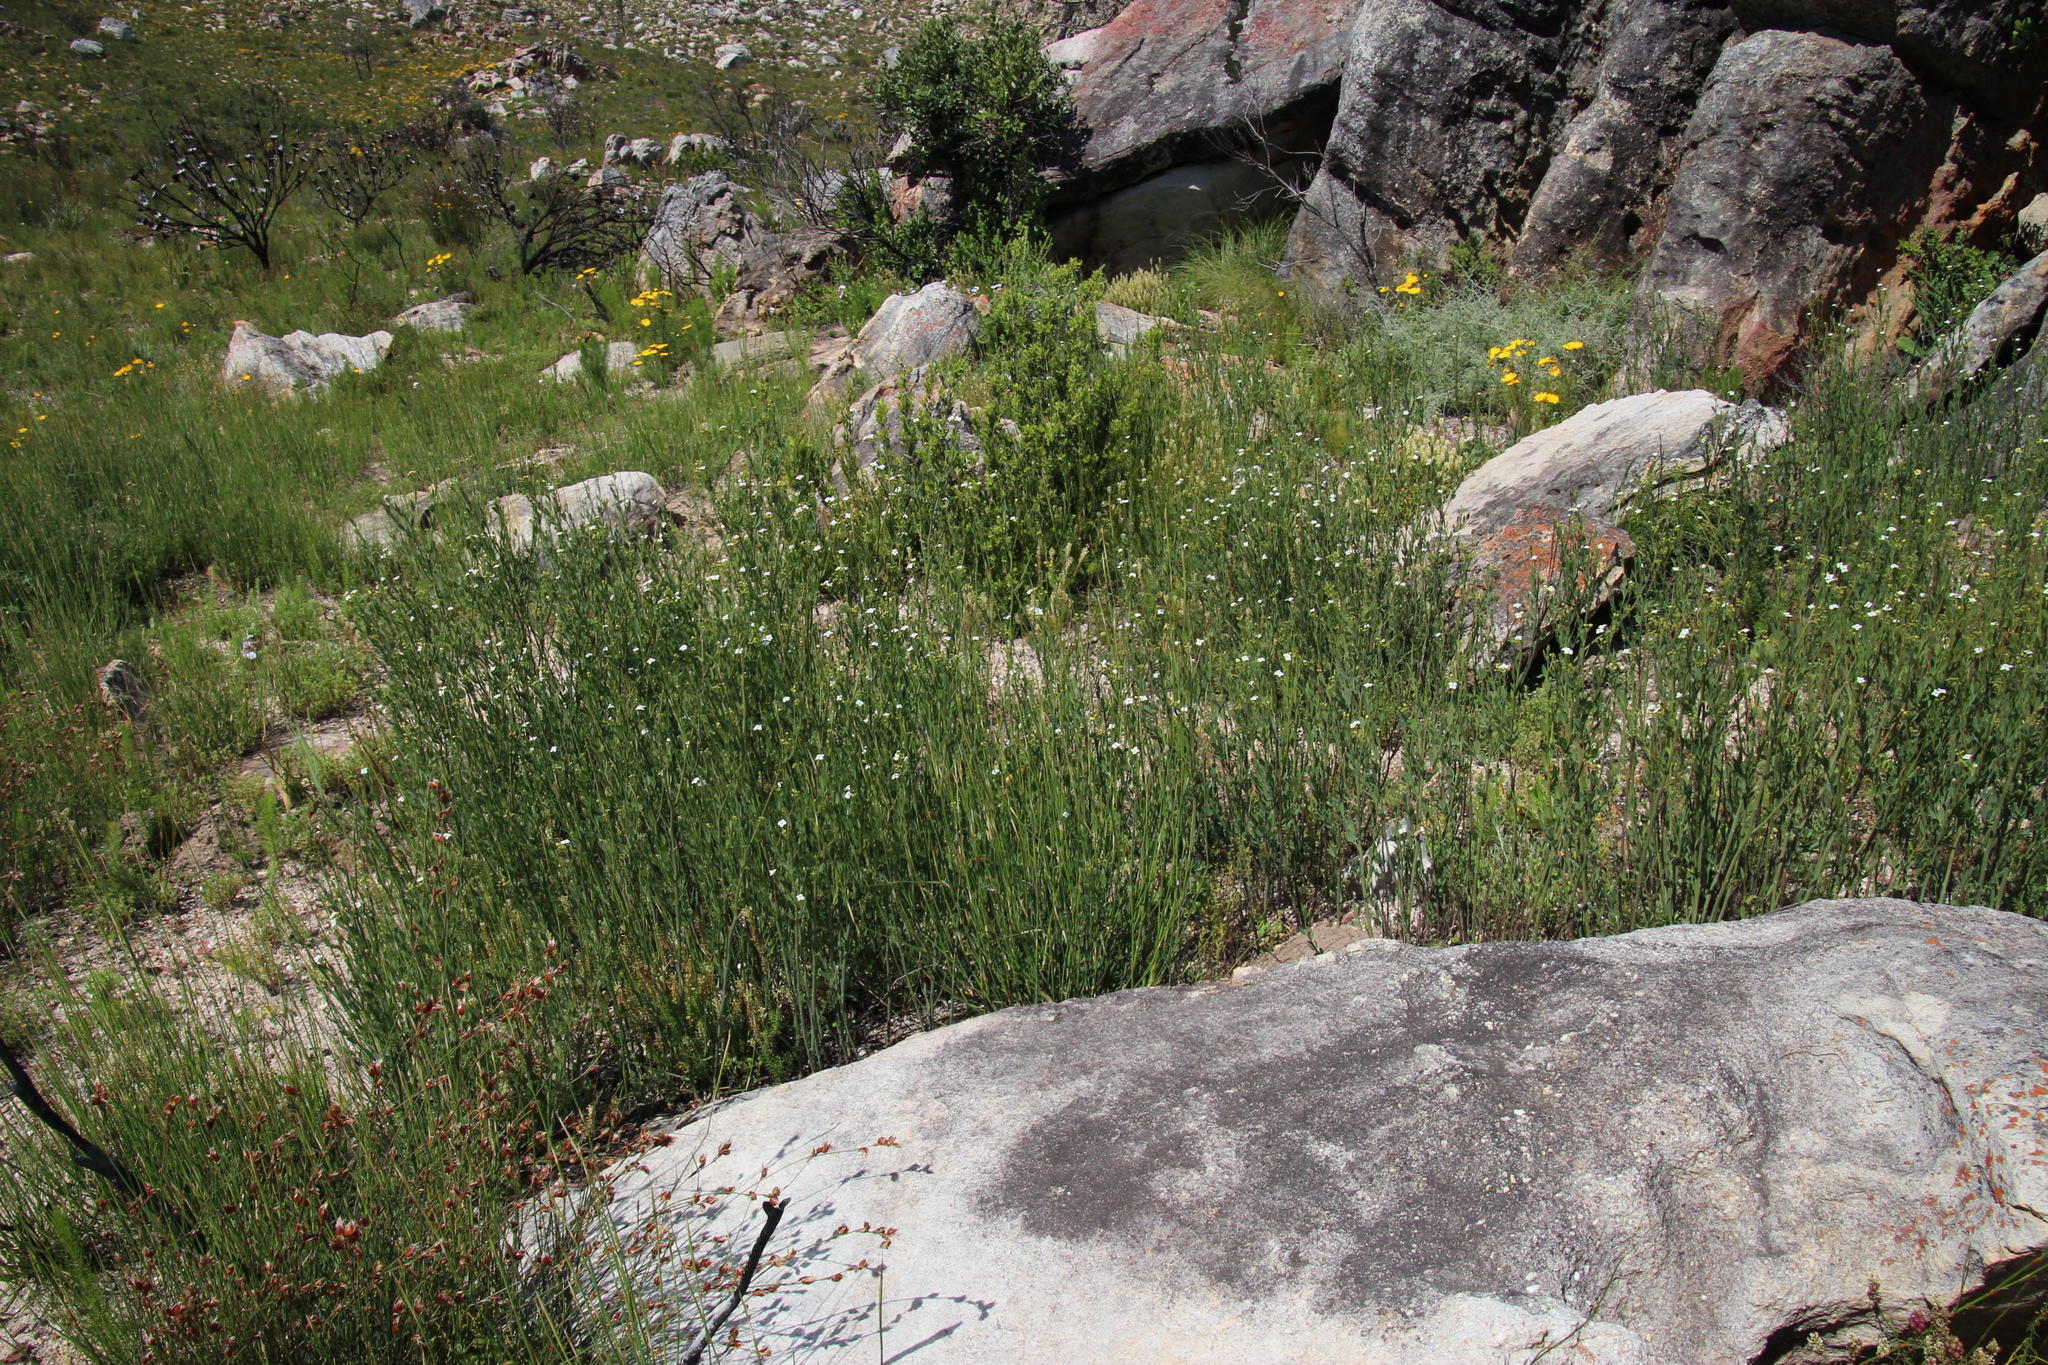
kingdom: Plantae
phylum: Tracheophyta
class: Magnoliopsida
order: Solanales
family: Montiniaceae
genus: Montinia
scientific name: Montinia caryophyllacea
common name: Wild clove-bush
